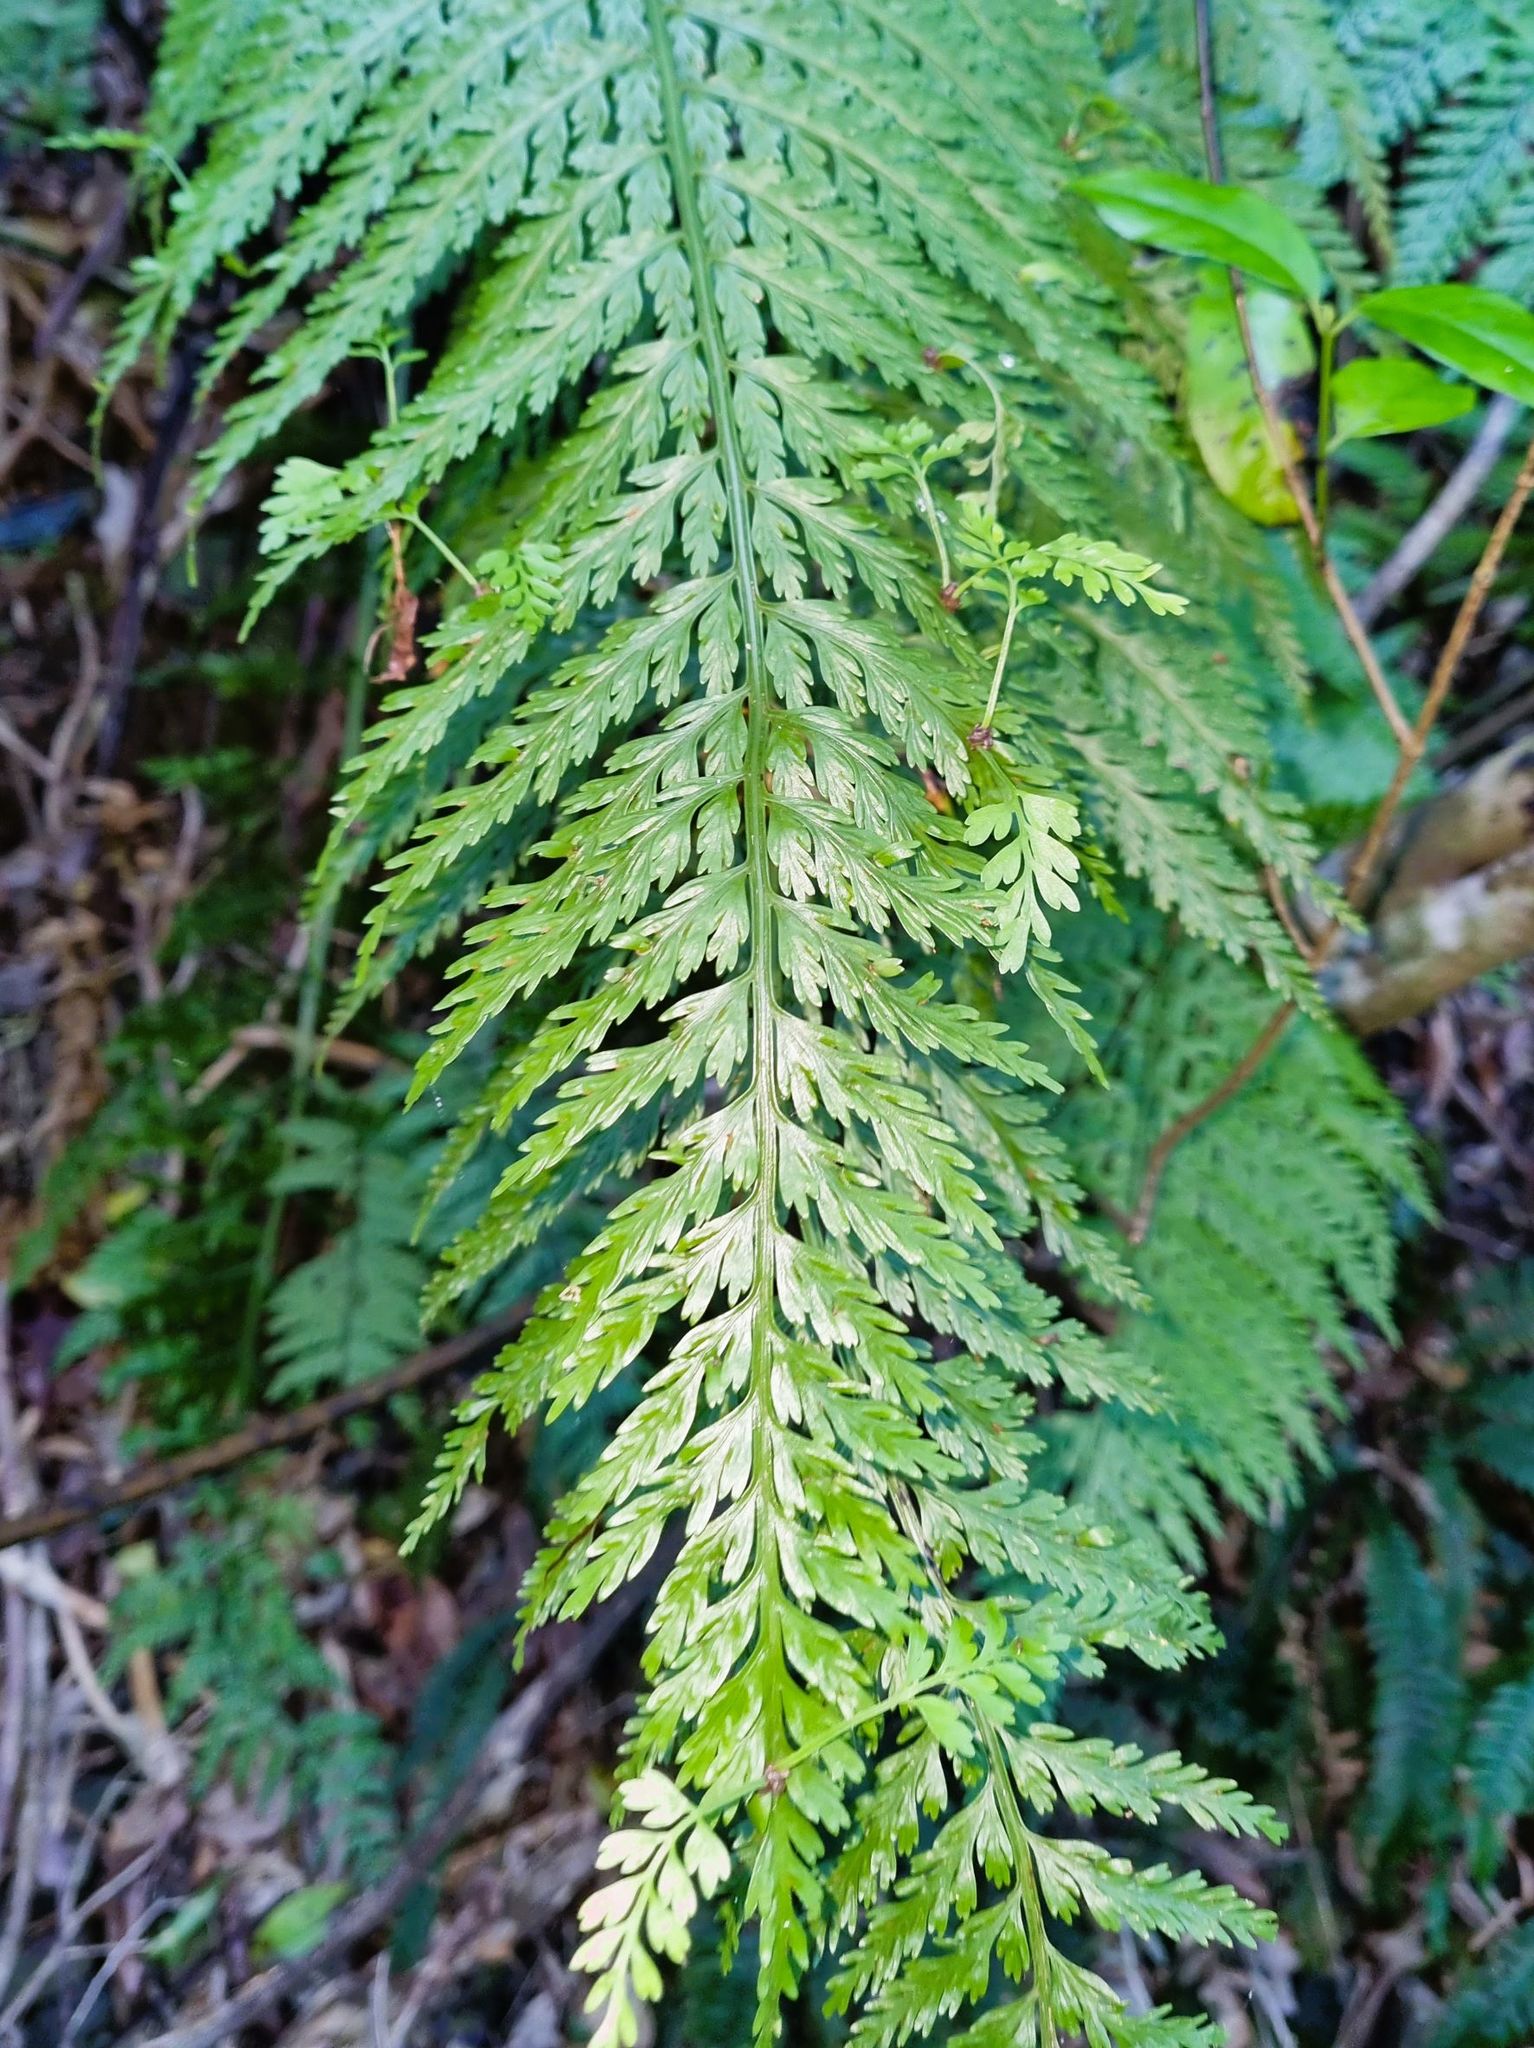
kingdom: Plantae
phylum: Tracheophyta
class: Polypodiopsida
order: Polypodiales
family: Aspleniaceae
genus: Asplenium
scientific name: Asplenium bulbiferum
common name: Mother fern
